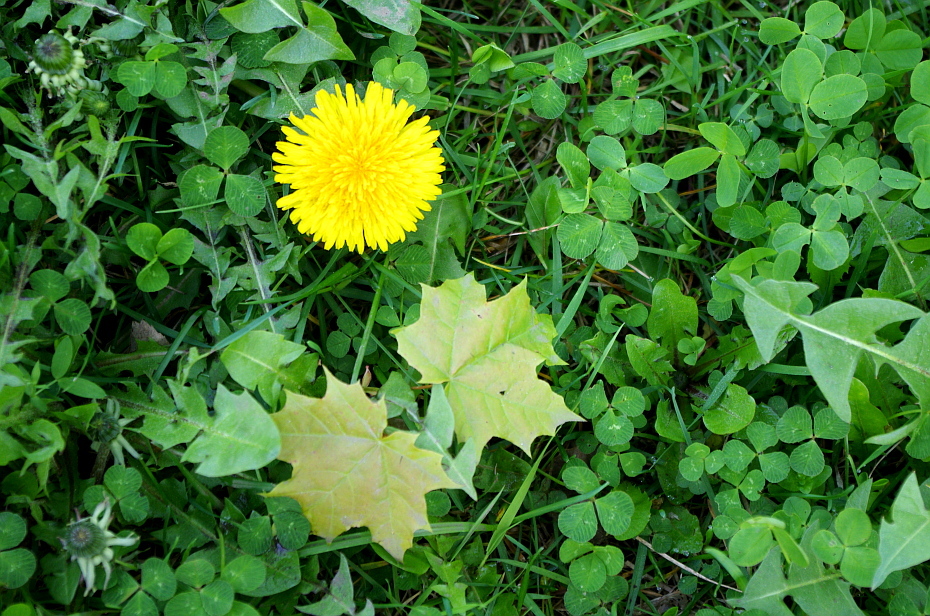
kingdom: Plantae
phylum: Tracheophyta
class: Magnoliopsida
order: Fabales
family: Fabaceae
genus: Trifolium
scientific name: Trifolium repens
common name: White clover
